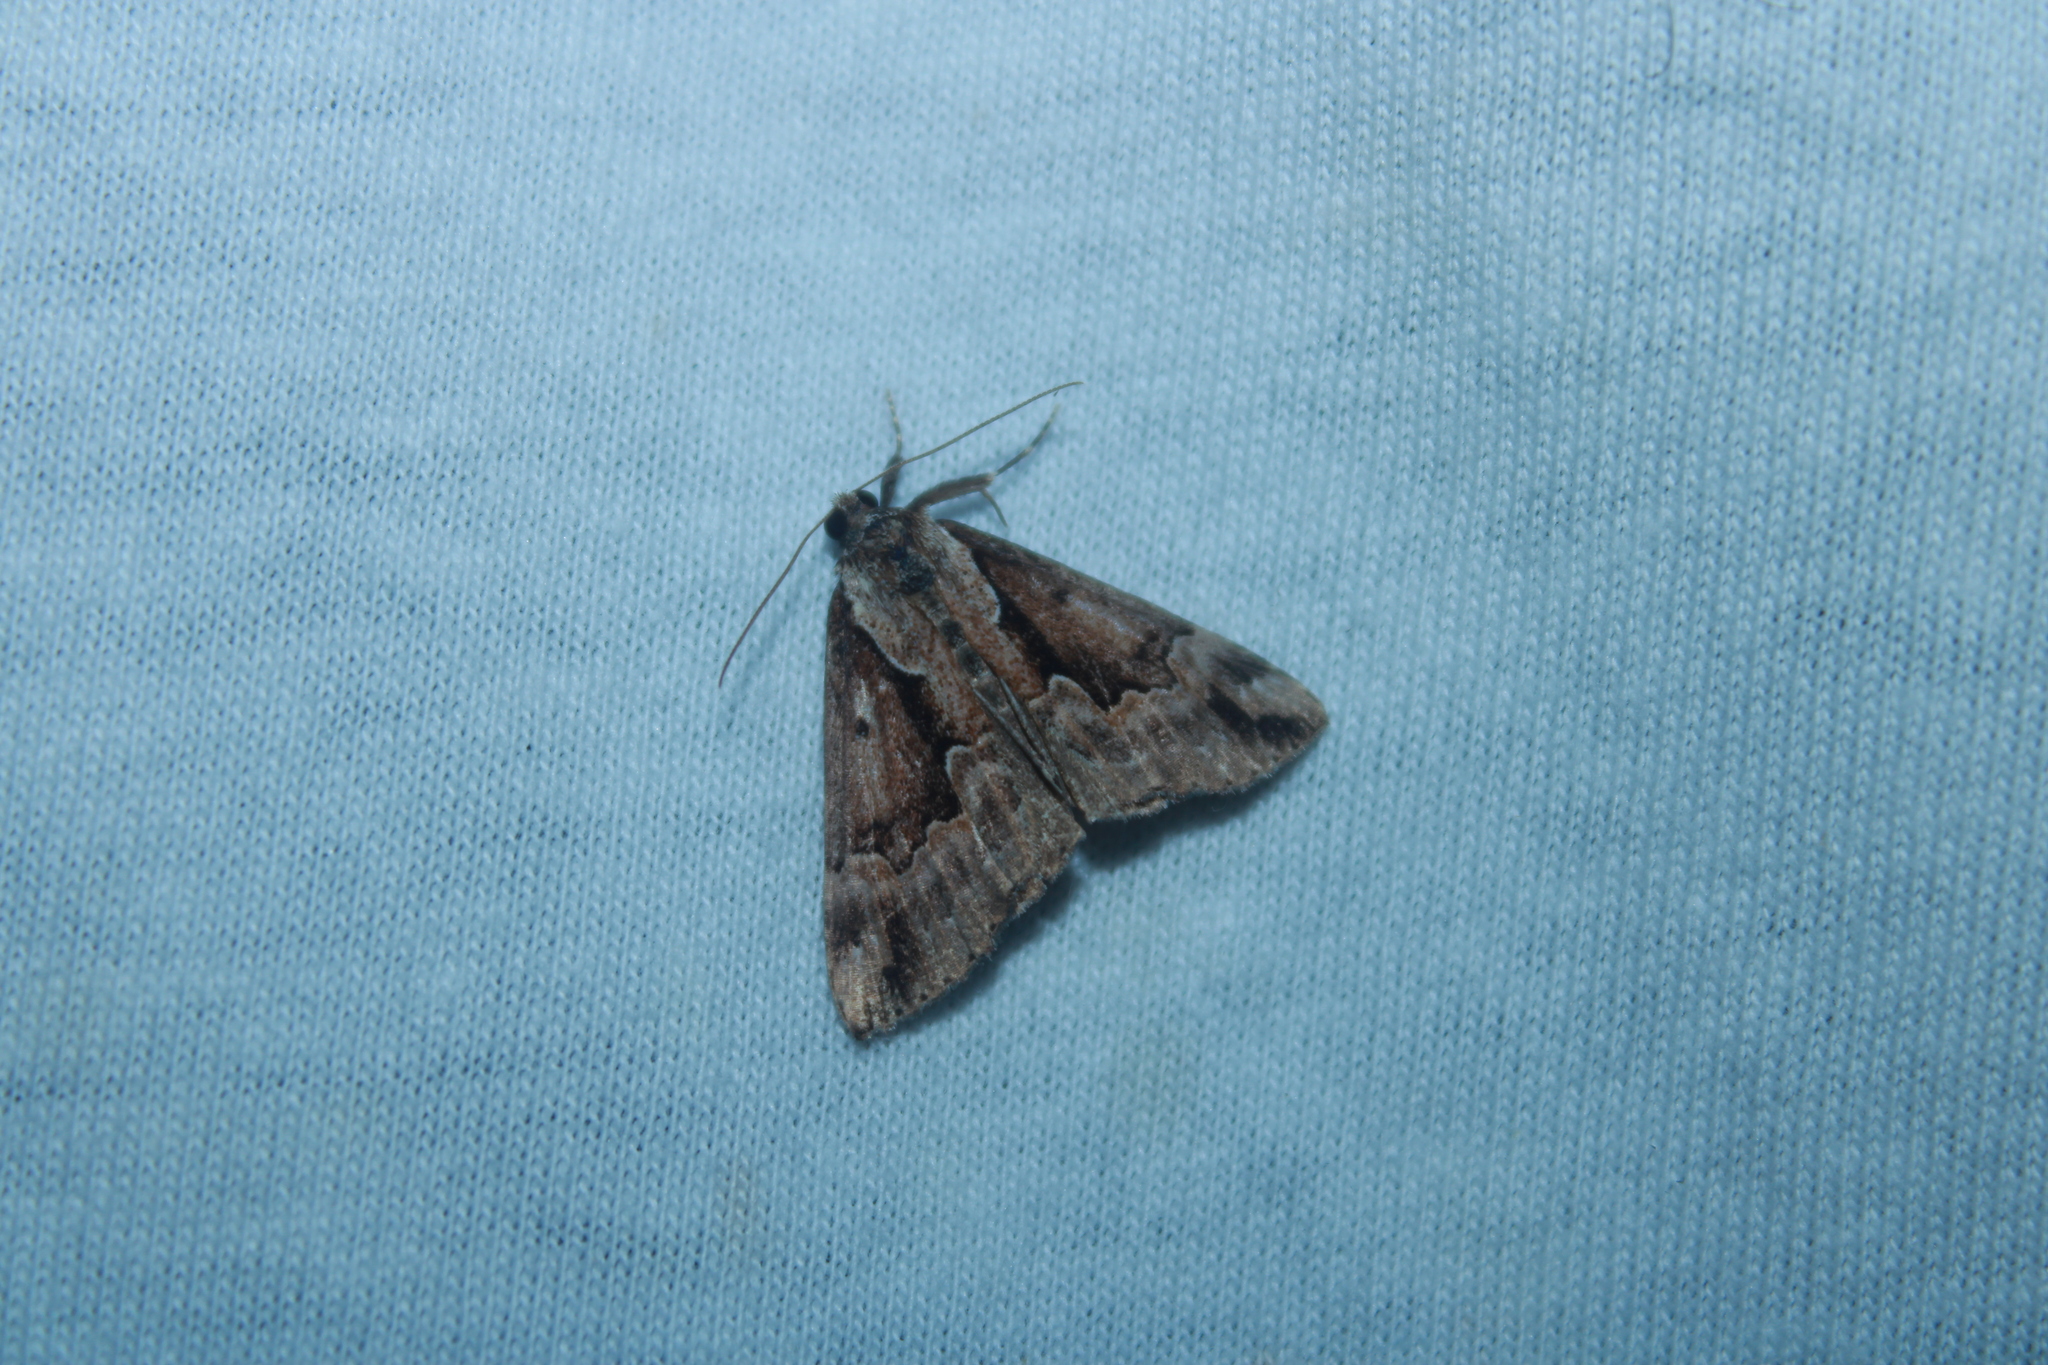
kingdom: Animalia
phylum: Arthropoda
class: Insecta
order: Lepidoptera
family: Erebidae
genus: Hypena
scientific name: Hypena baltimoralis
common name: Baltimore snout
